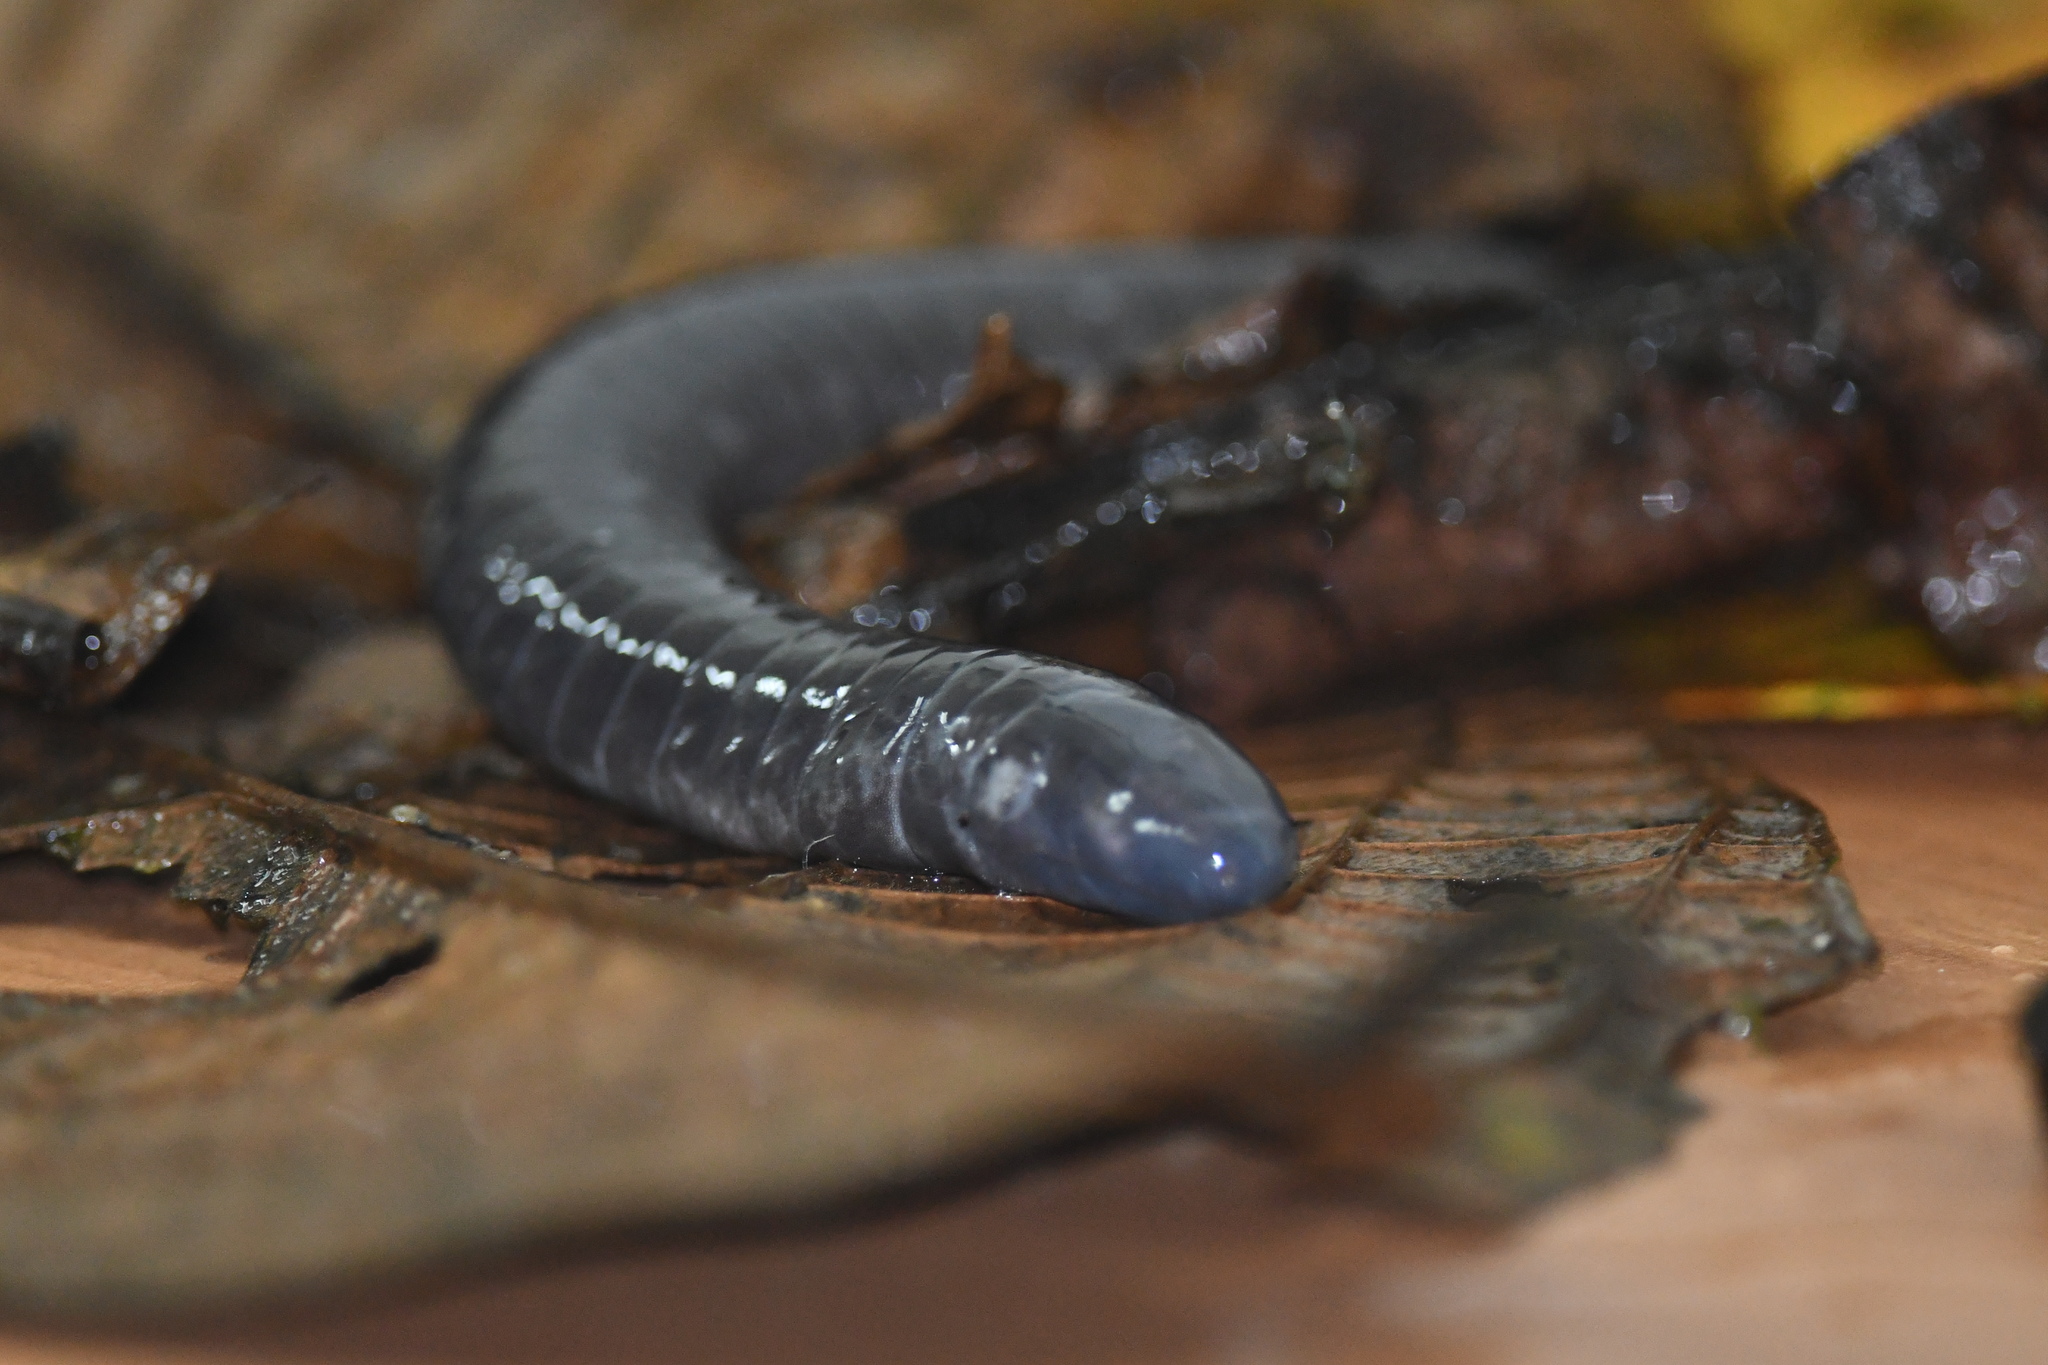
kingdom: Animalia
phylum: Chordata
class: Amphibia
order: Gymnophiona
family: Dermophiidae
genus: Gymnopis
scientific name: Gymnopis multiplicata
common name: Varagua caecilian
